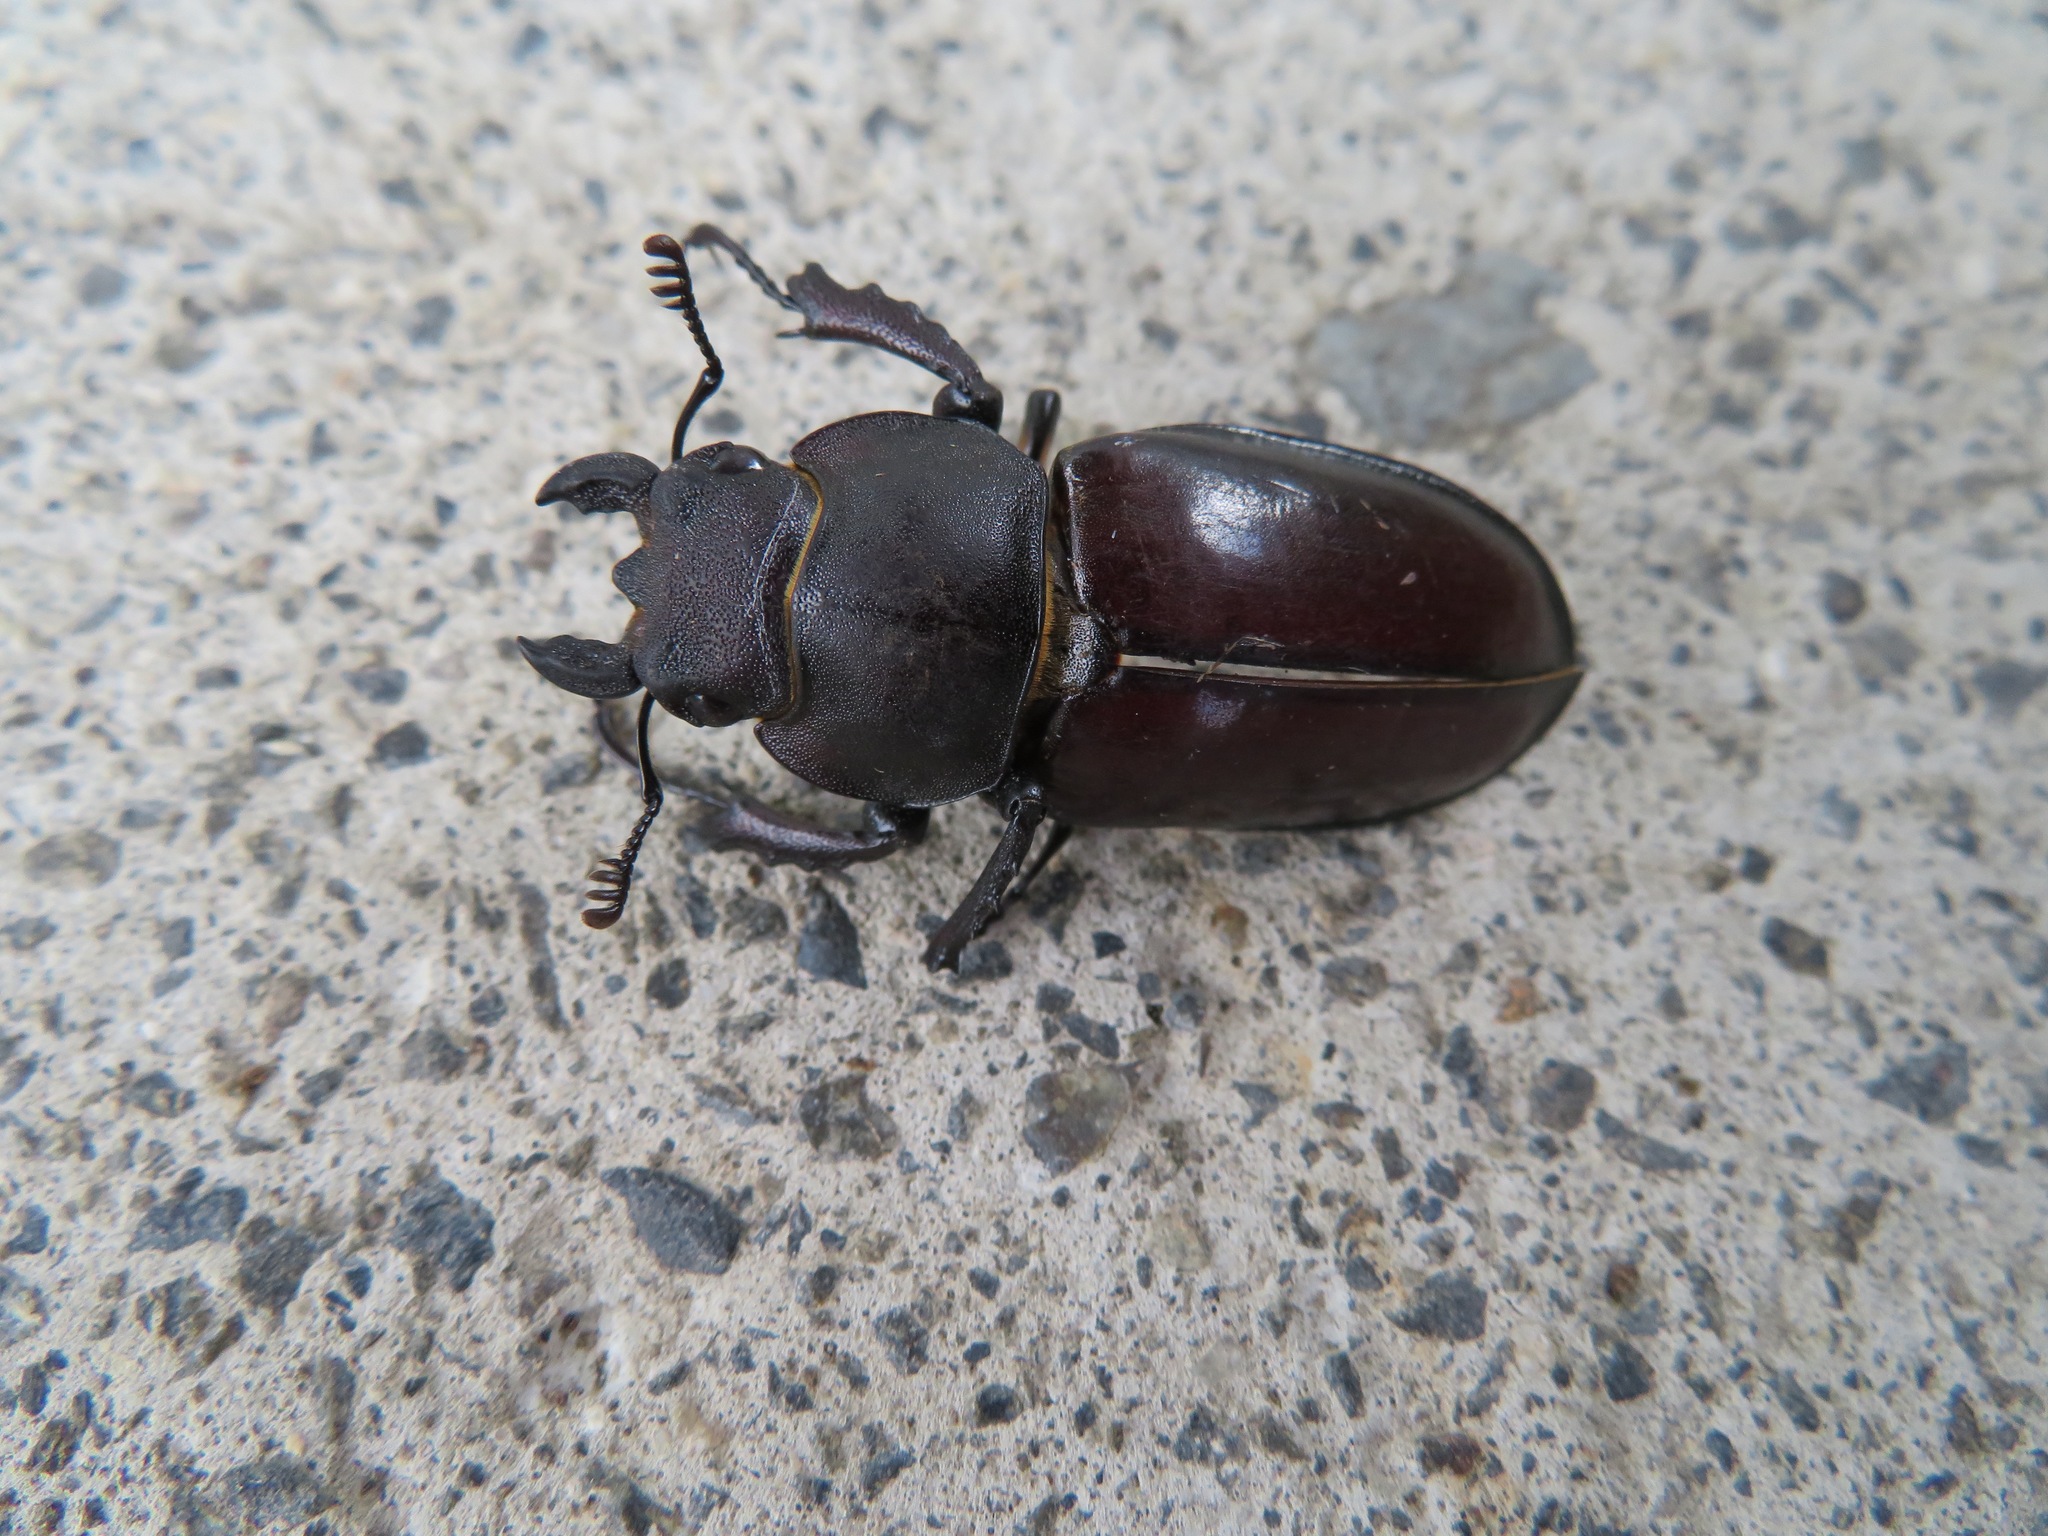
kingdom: Animalia
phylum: Arthropoda
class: Insecta
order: Coleoptera
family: Lucanidae
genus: Lucanus
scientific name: Lucanus maculifemoratus
